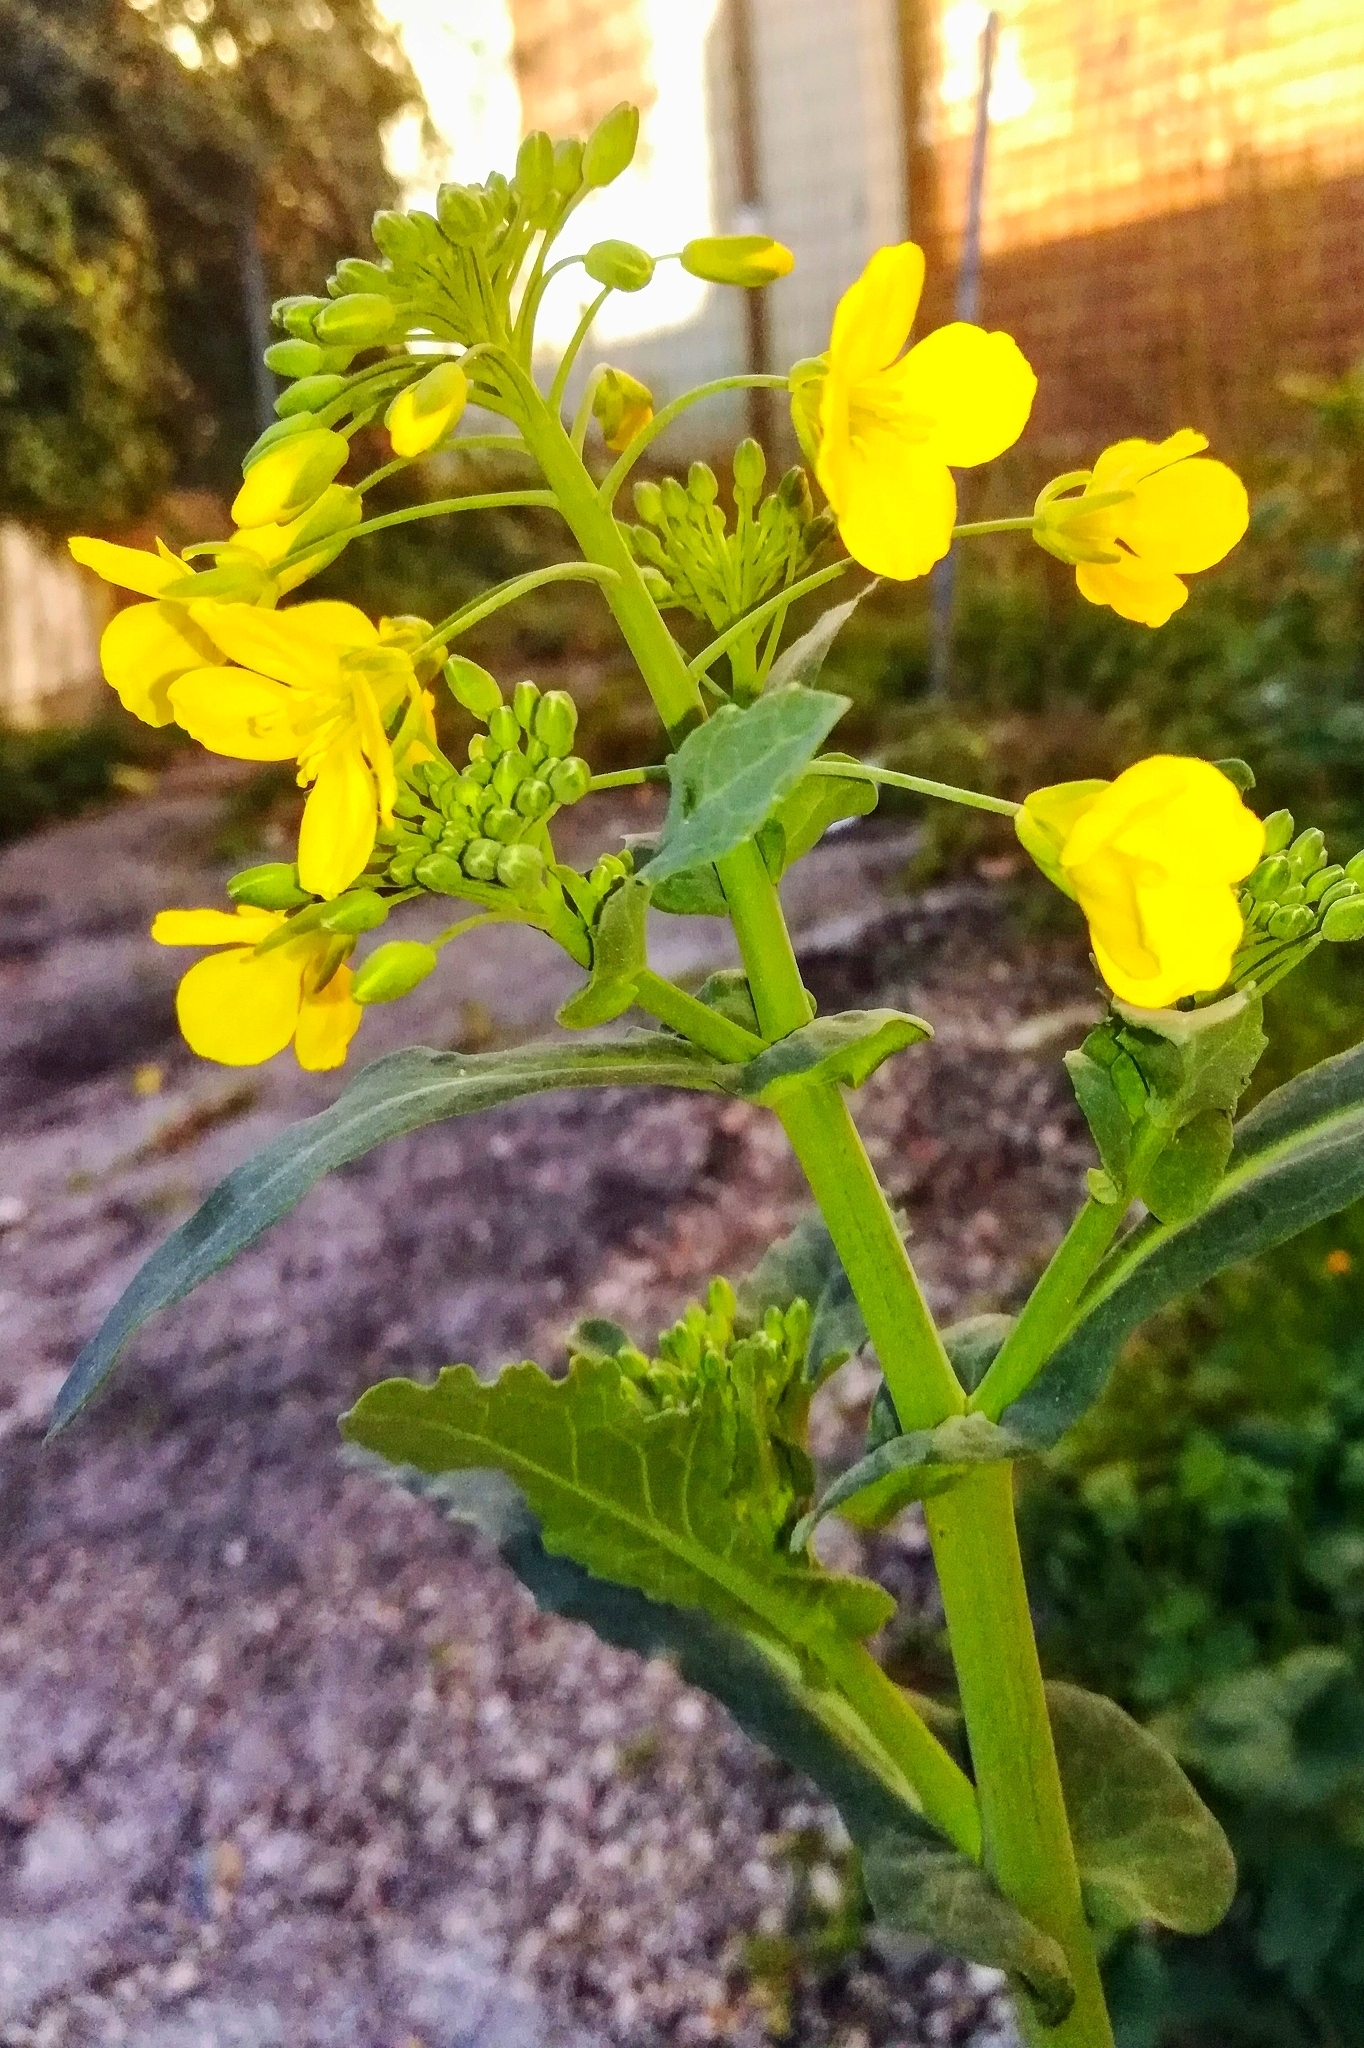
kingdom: Plantae
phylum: Tracheophyta
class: Magnoliopsida
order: Brassicales
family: Brassicaceae
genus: Brassica
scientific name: Brassica napus
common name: Rape
